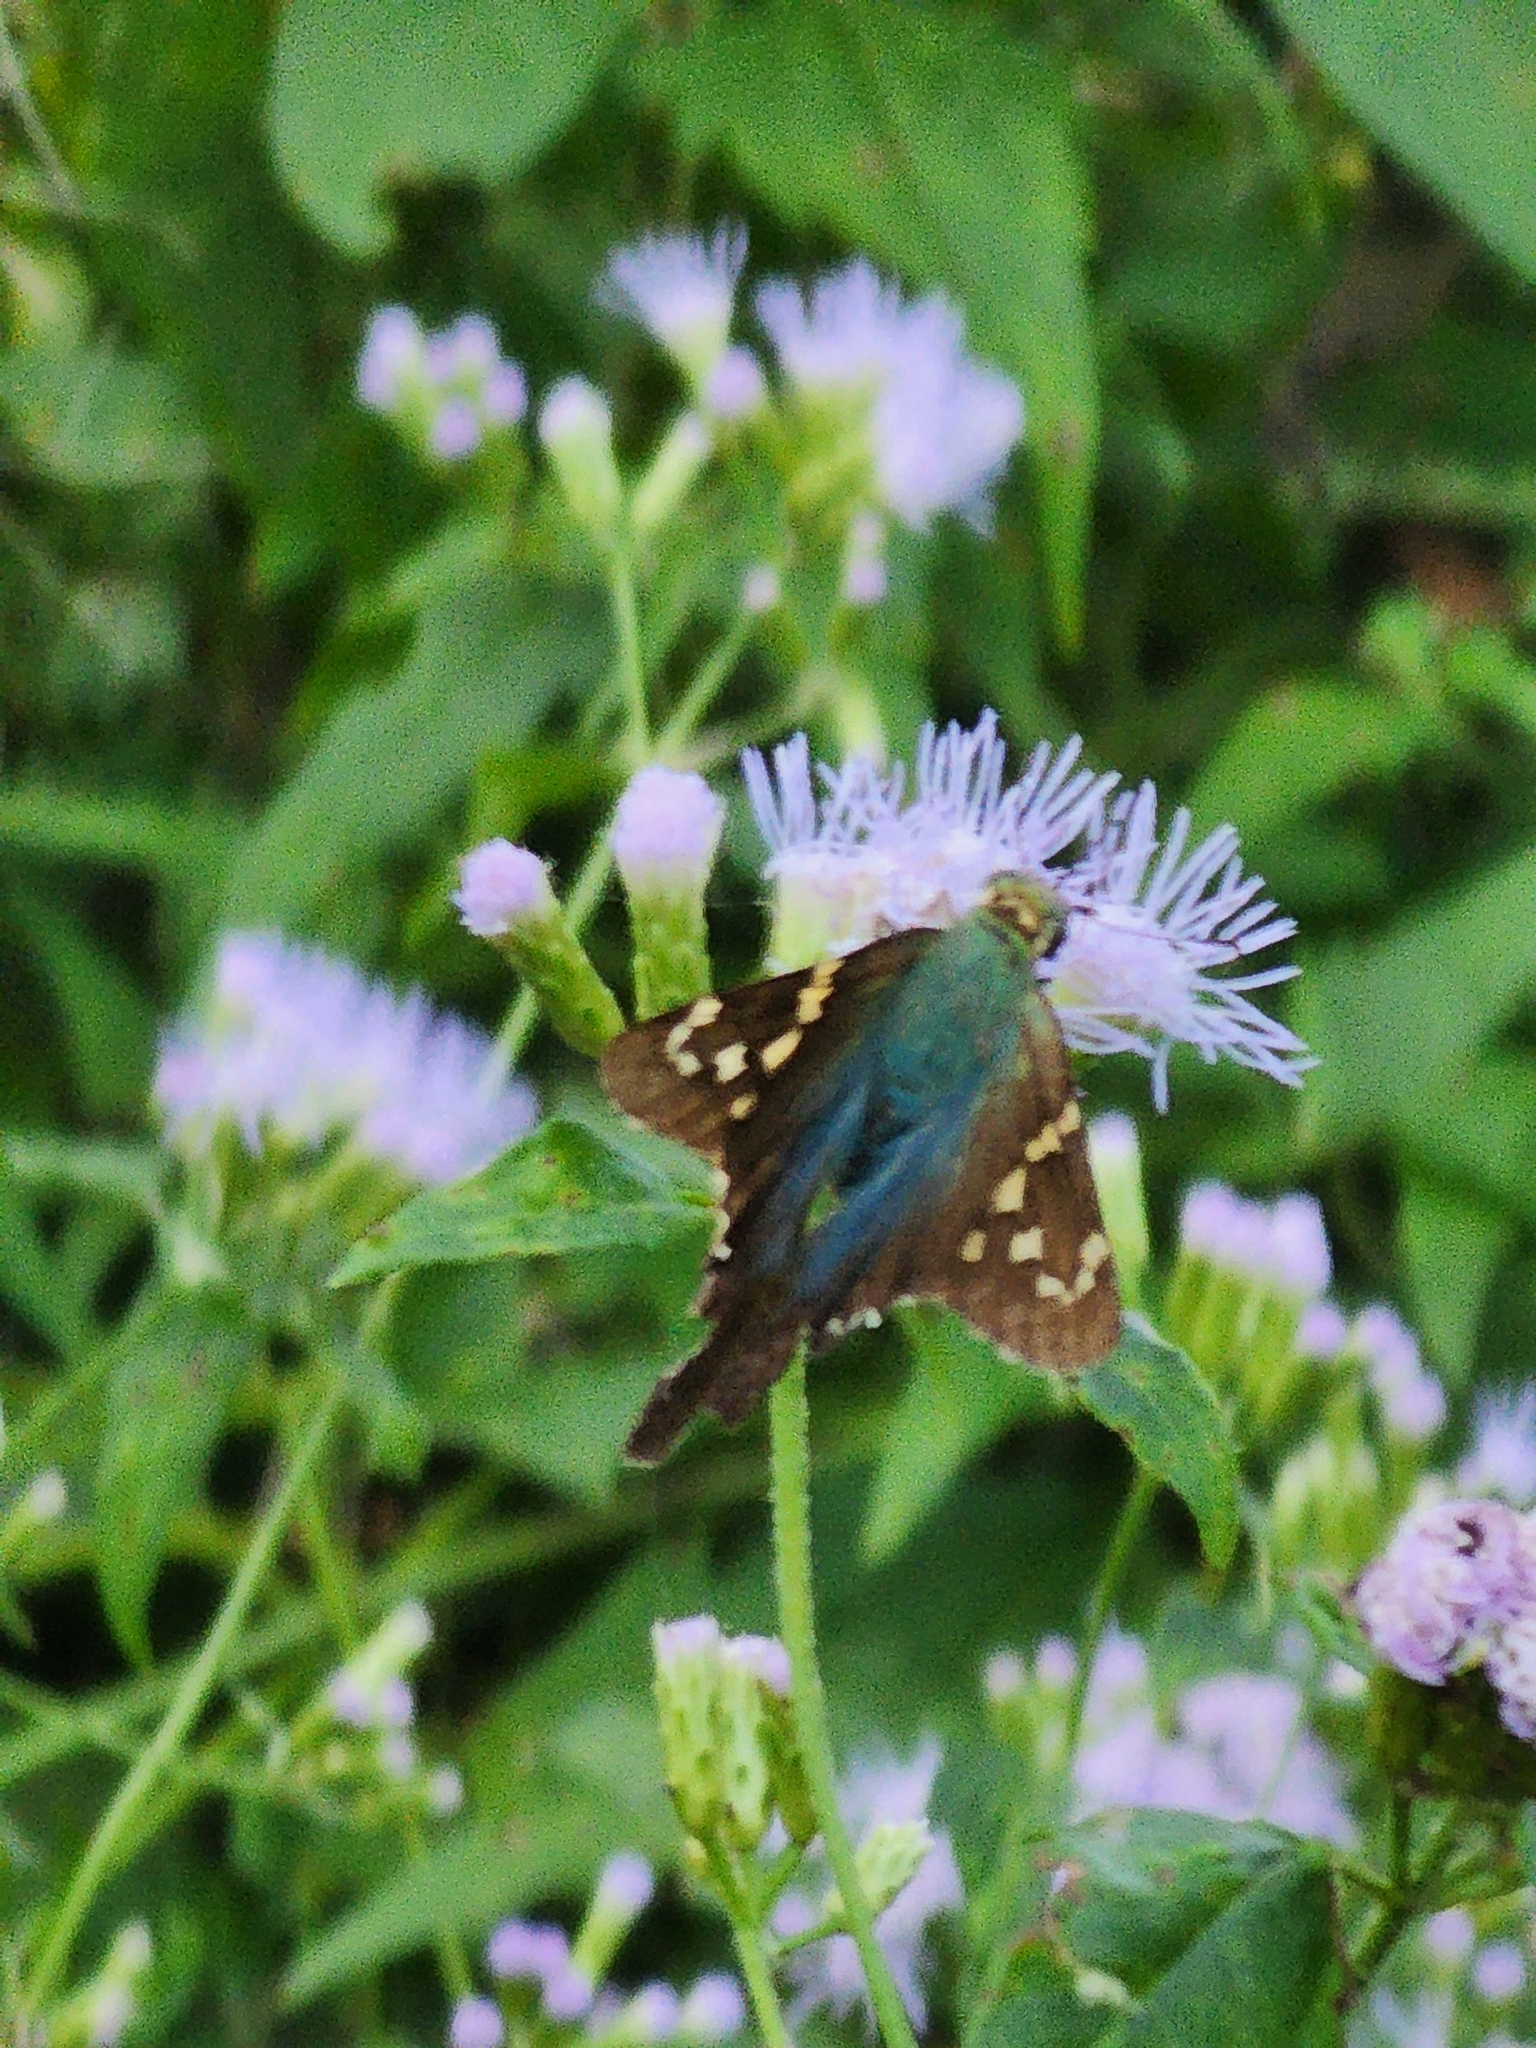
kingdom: Animalia
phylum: Arthropoda
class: Insecta
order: Lepidoptera
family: Hesperiidae
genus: Urbanus
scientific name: Urbanus proteus
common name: Long-tailed skipper
